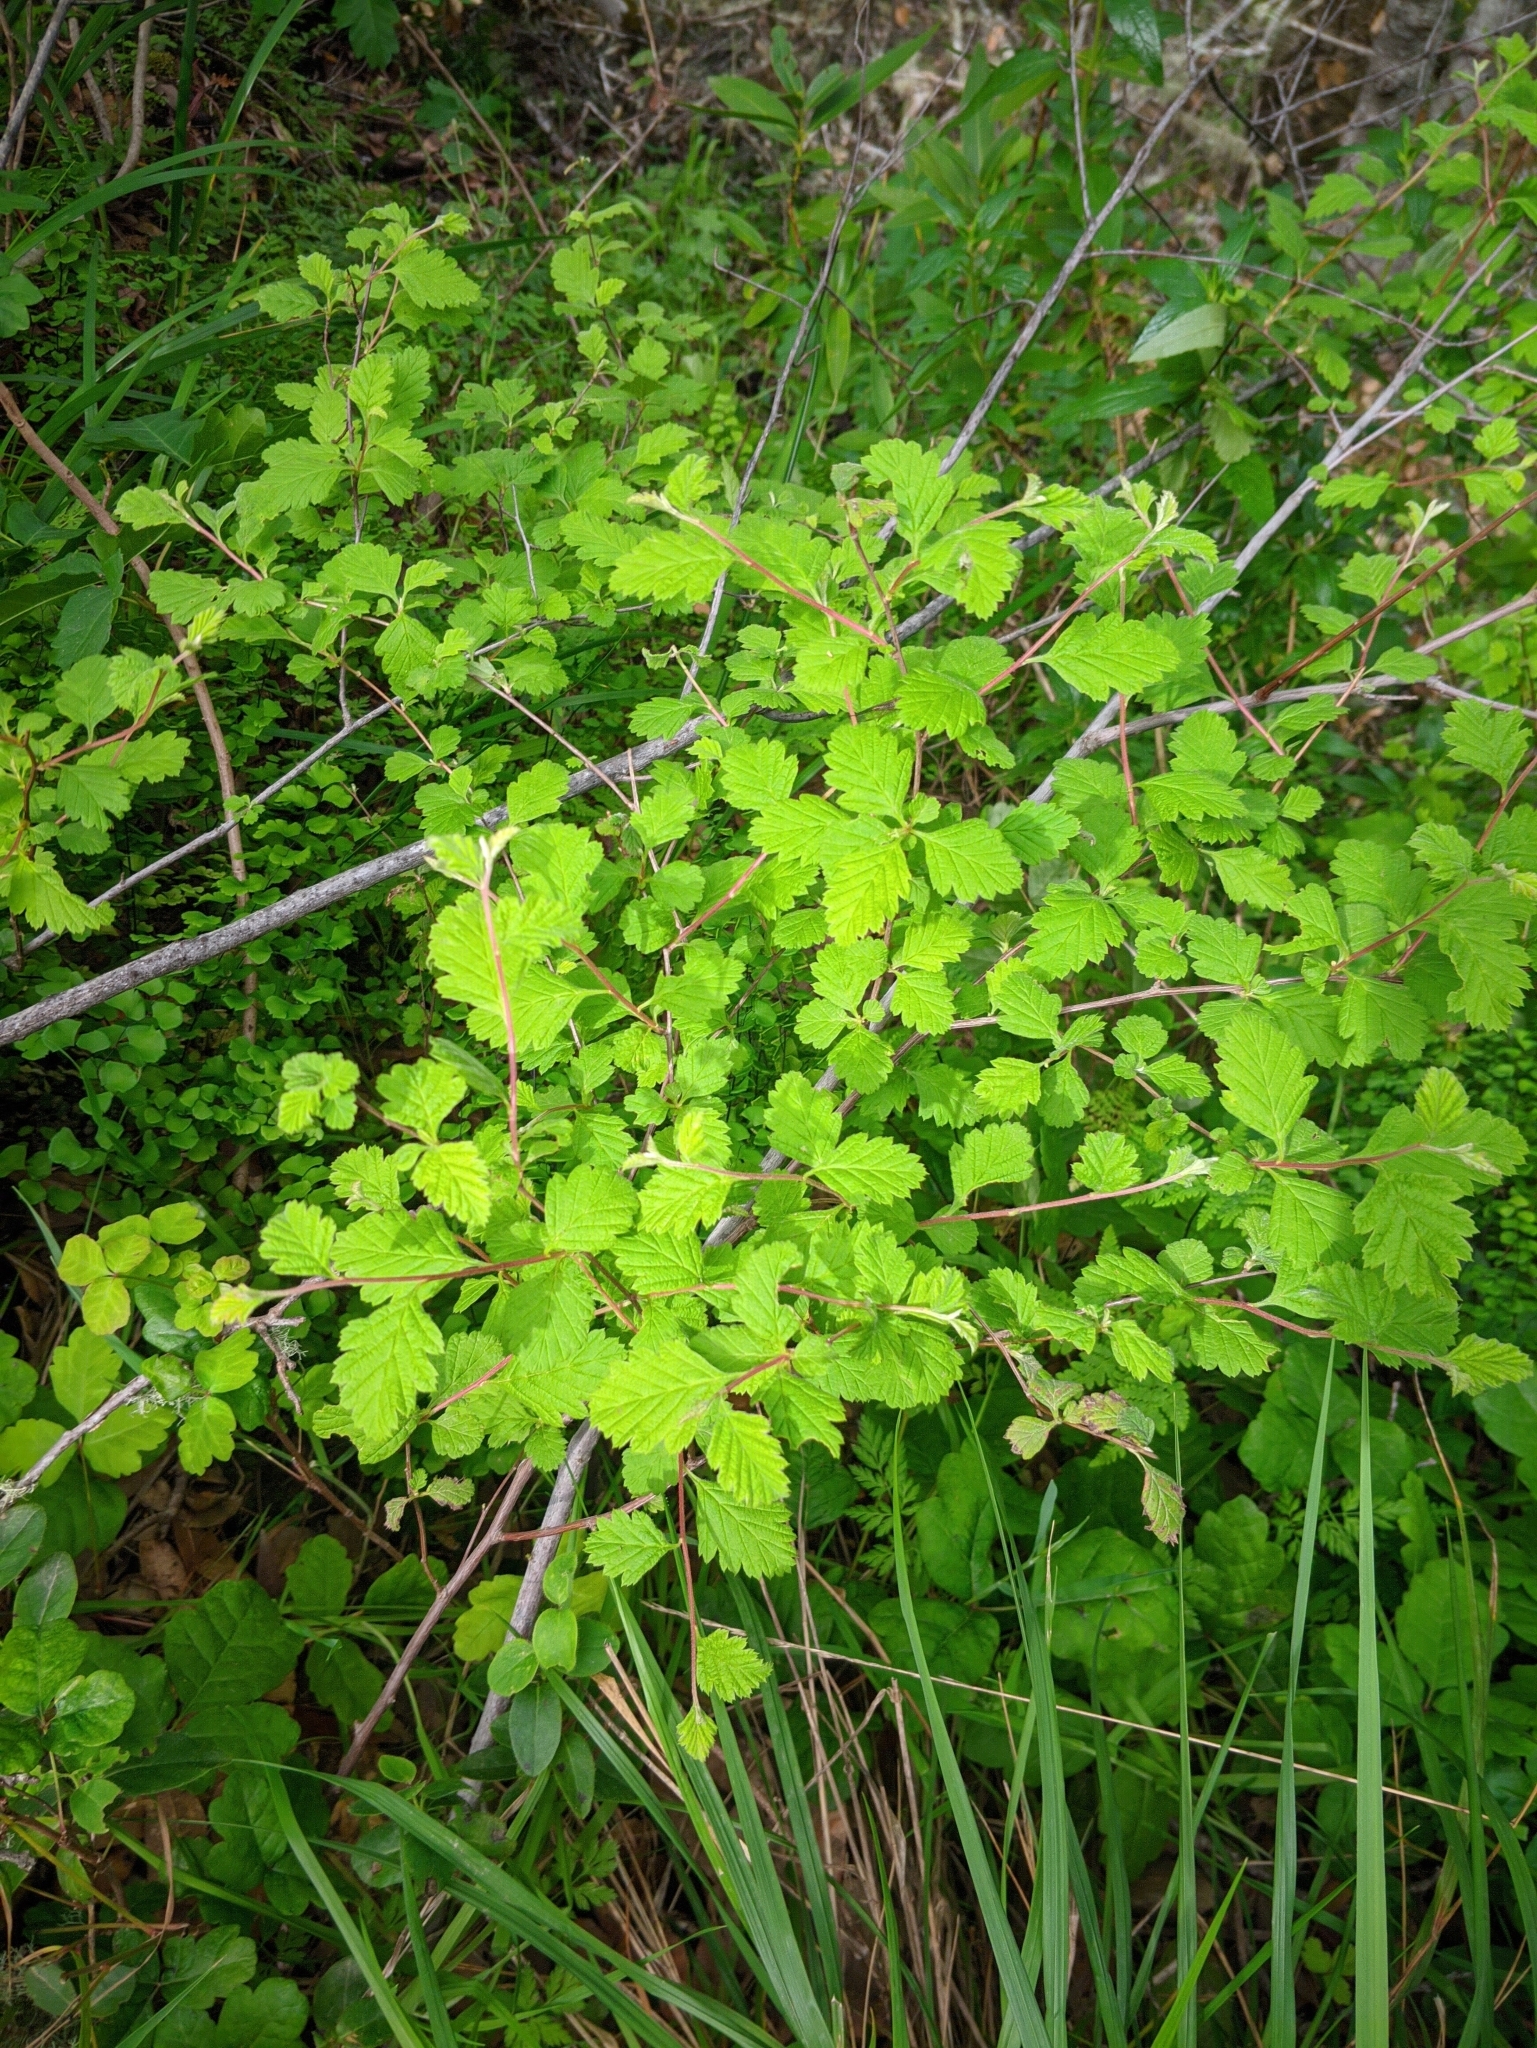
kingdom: Plantae
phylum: Tracheophyta
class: Magnoliopsida
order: Rosales
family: Rosaceae
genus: Holodiscus
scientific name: Holodiscus discolor
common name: Oceanspray
